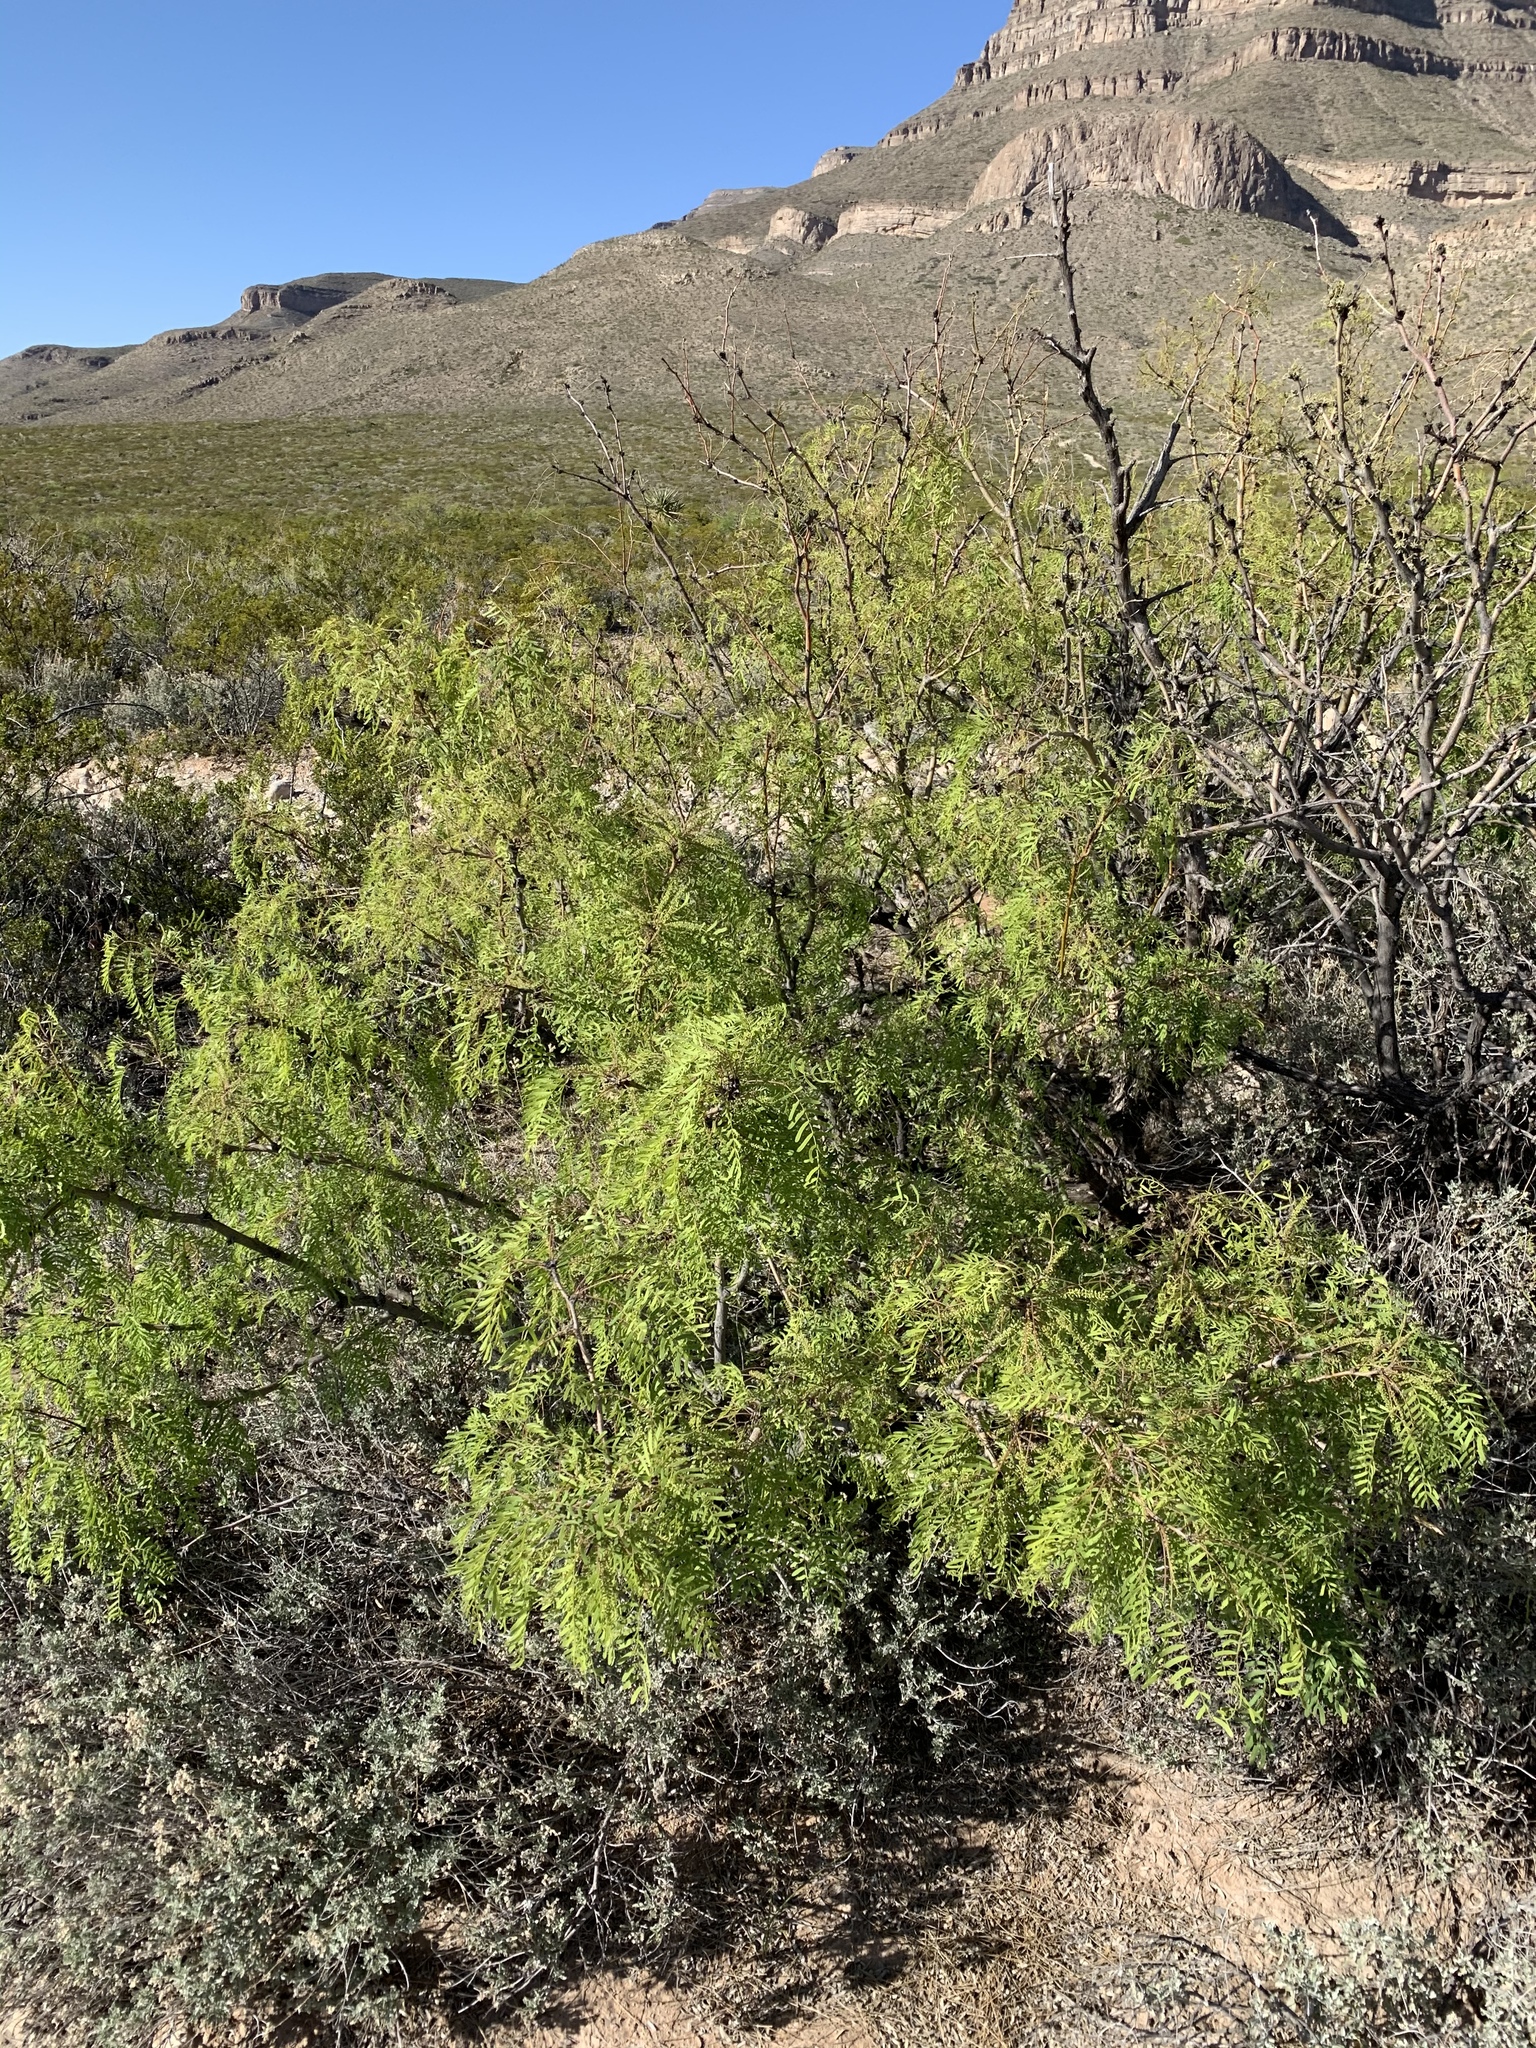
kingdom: Plantae
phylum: Tracheophyta
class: Magnoliopsida
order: Fabales
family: Fabaceae
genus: Prosopis
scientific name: Prosopis glandulosa
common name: Honey mesquite
